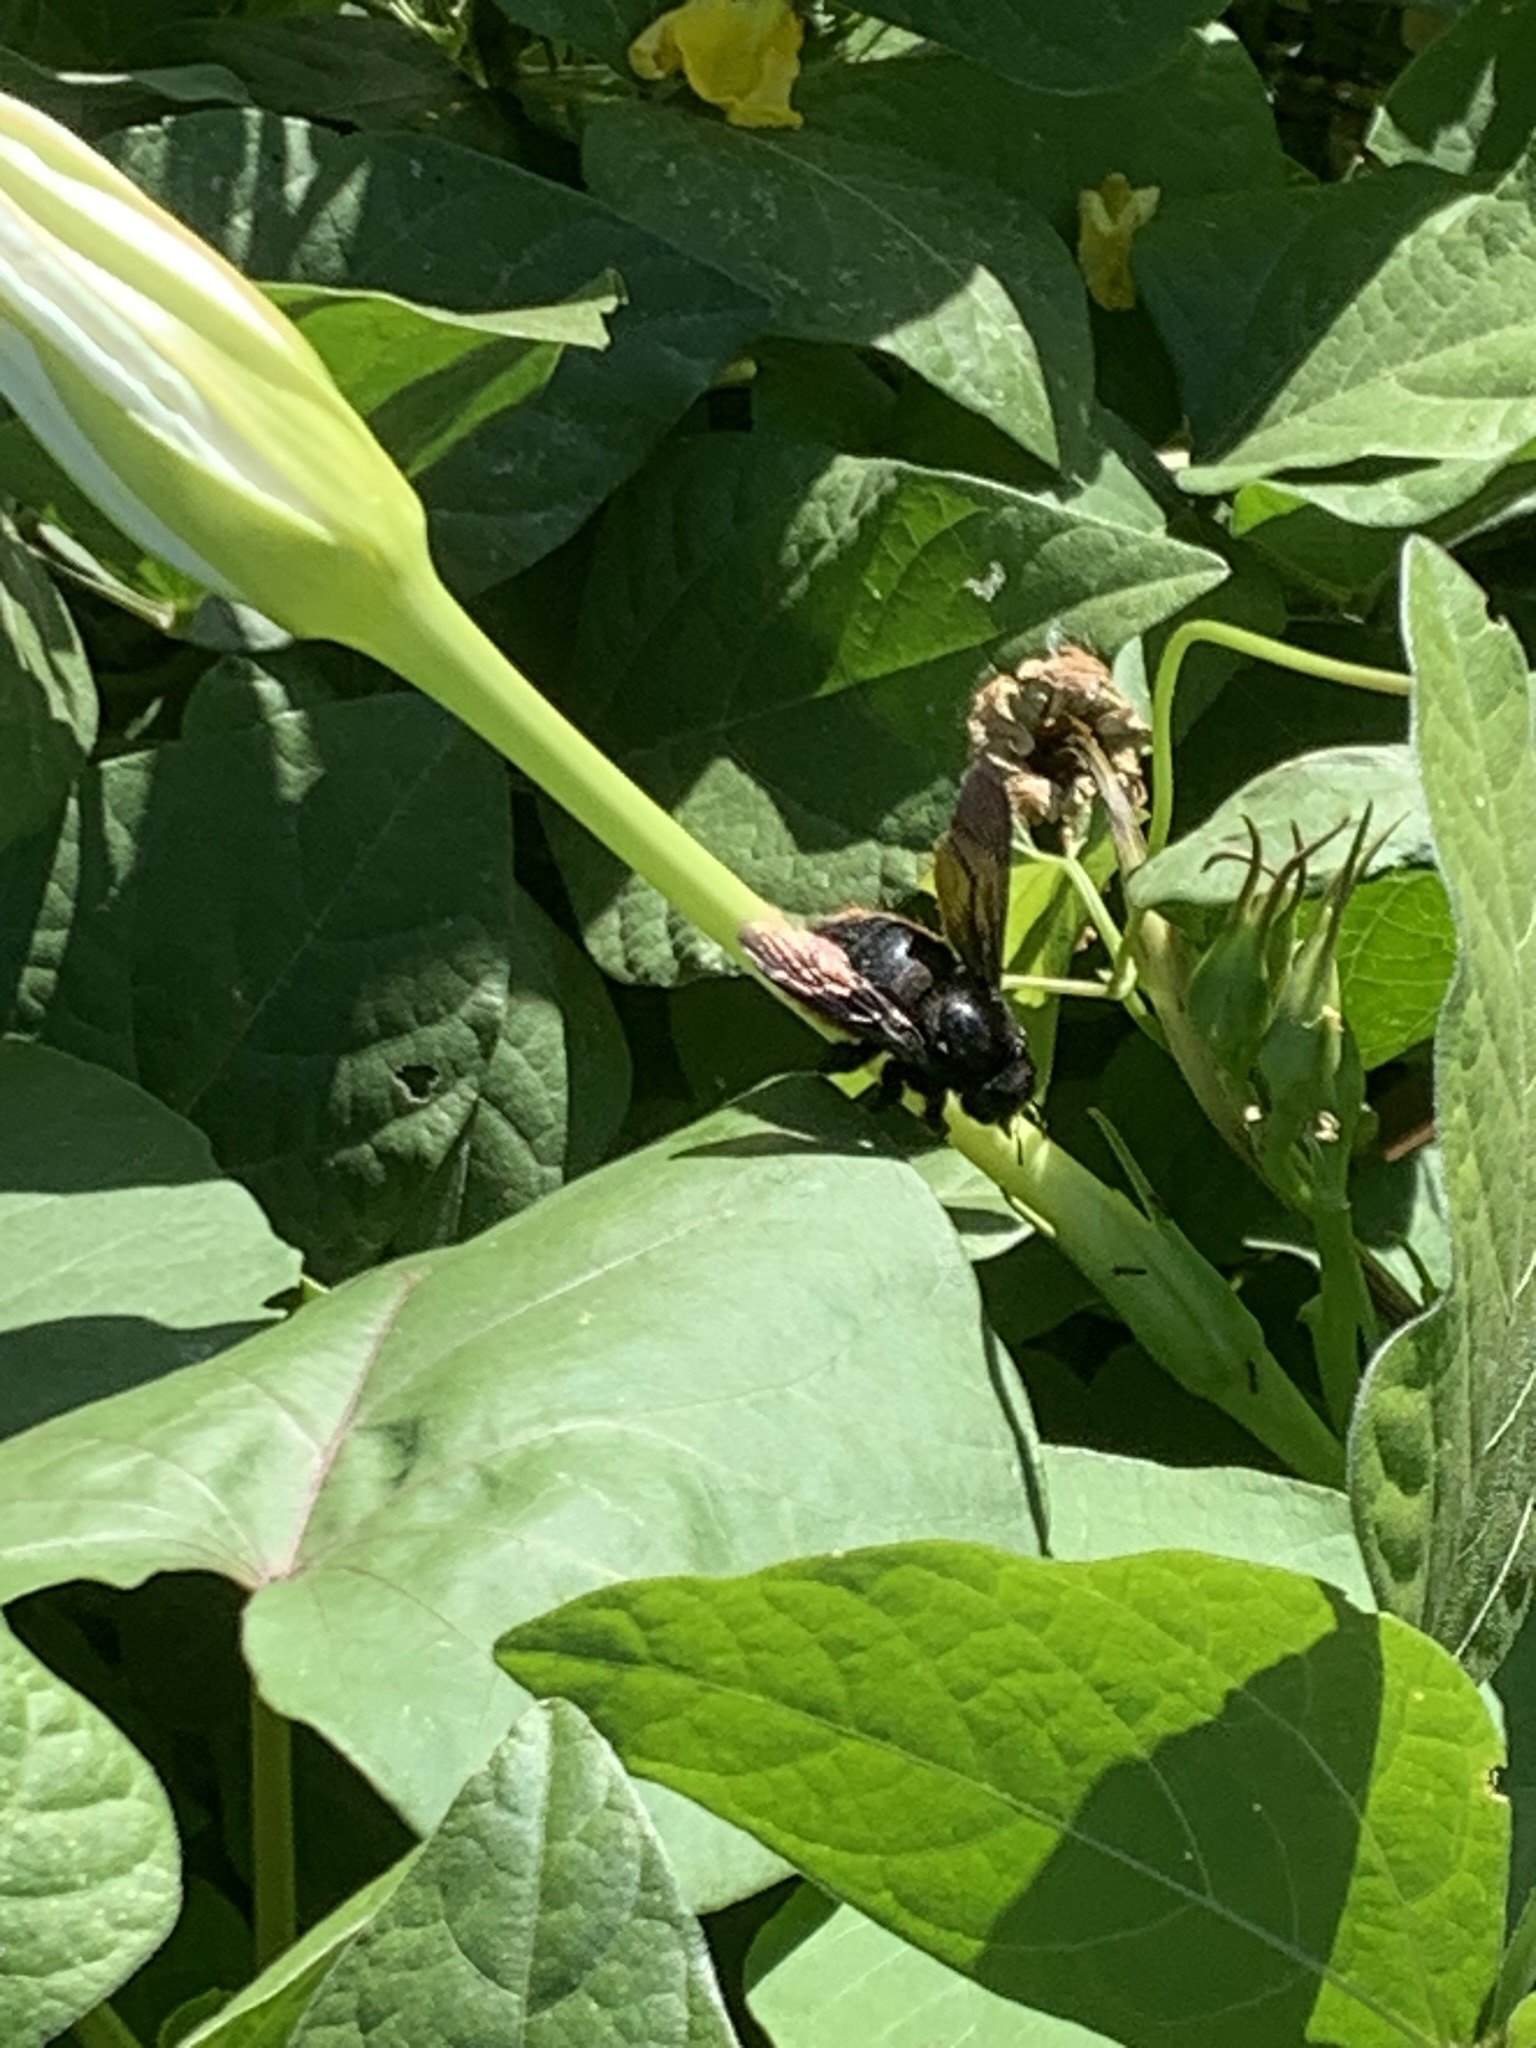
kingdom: Animalia
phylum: Arthropoda
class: Insecta
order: Hymenoptera
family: Apidae
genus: Xylocopa
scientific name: Xylocopa augusti
